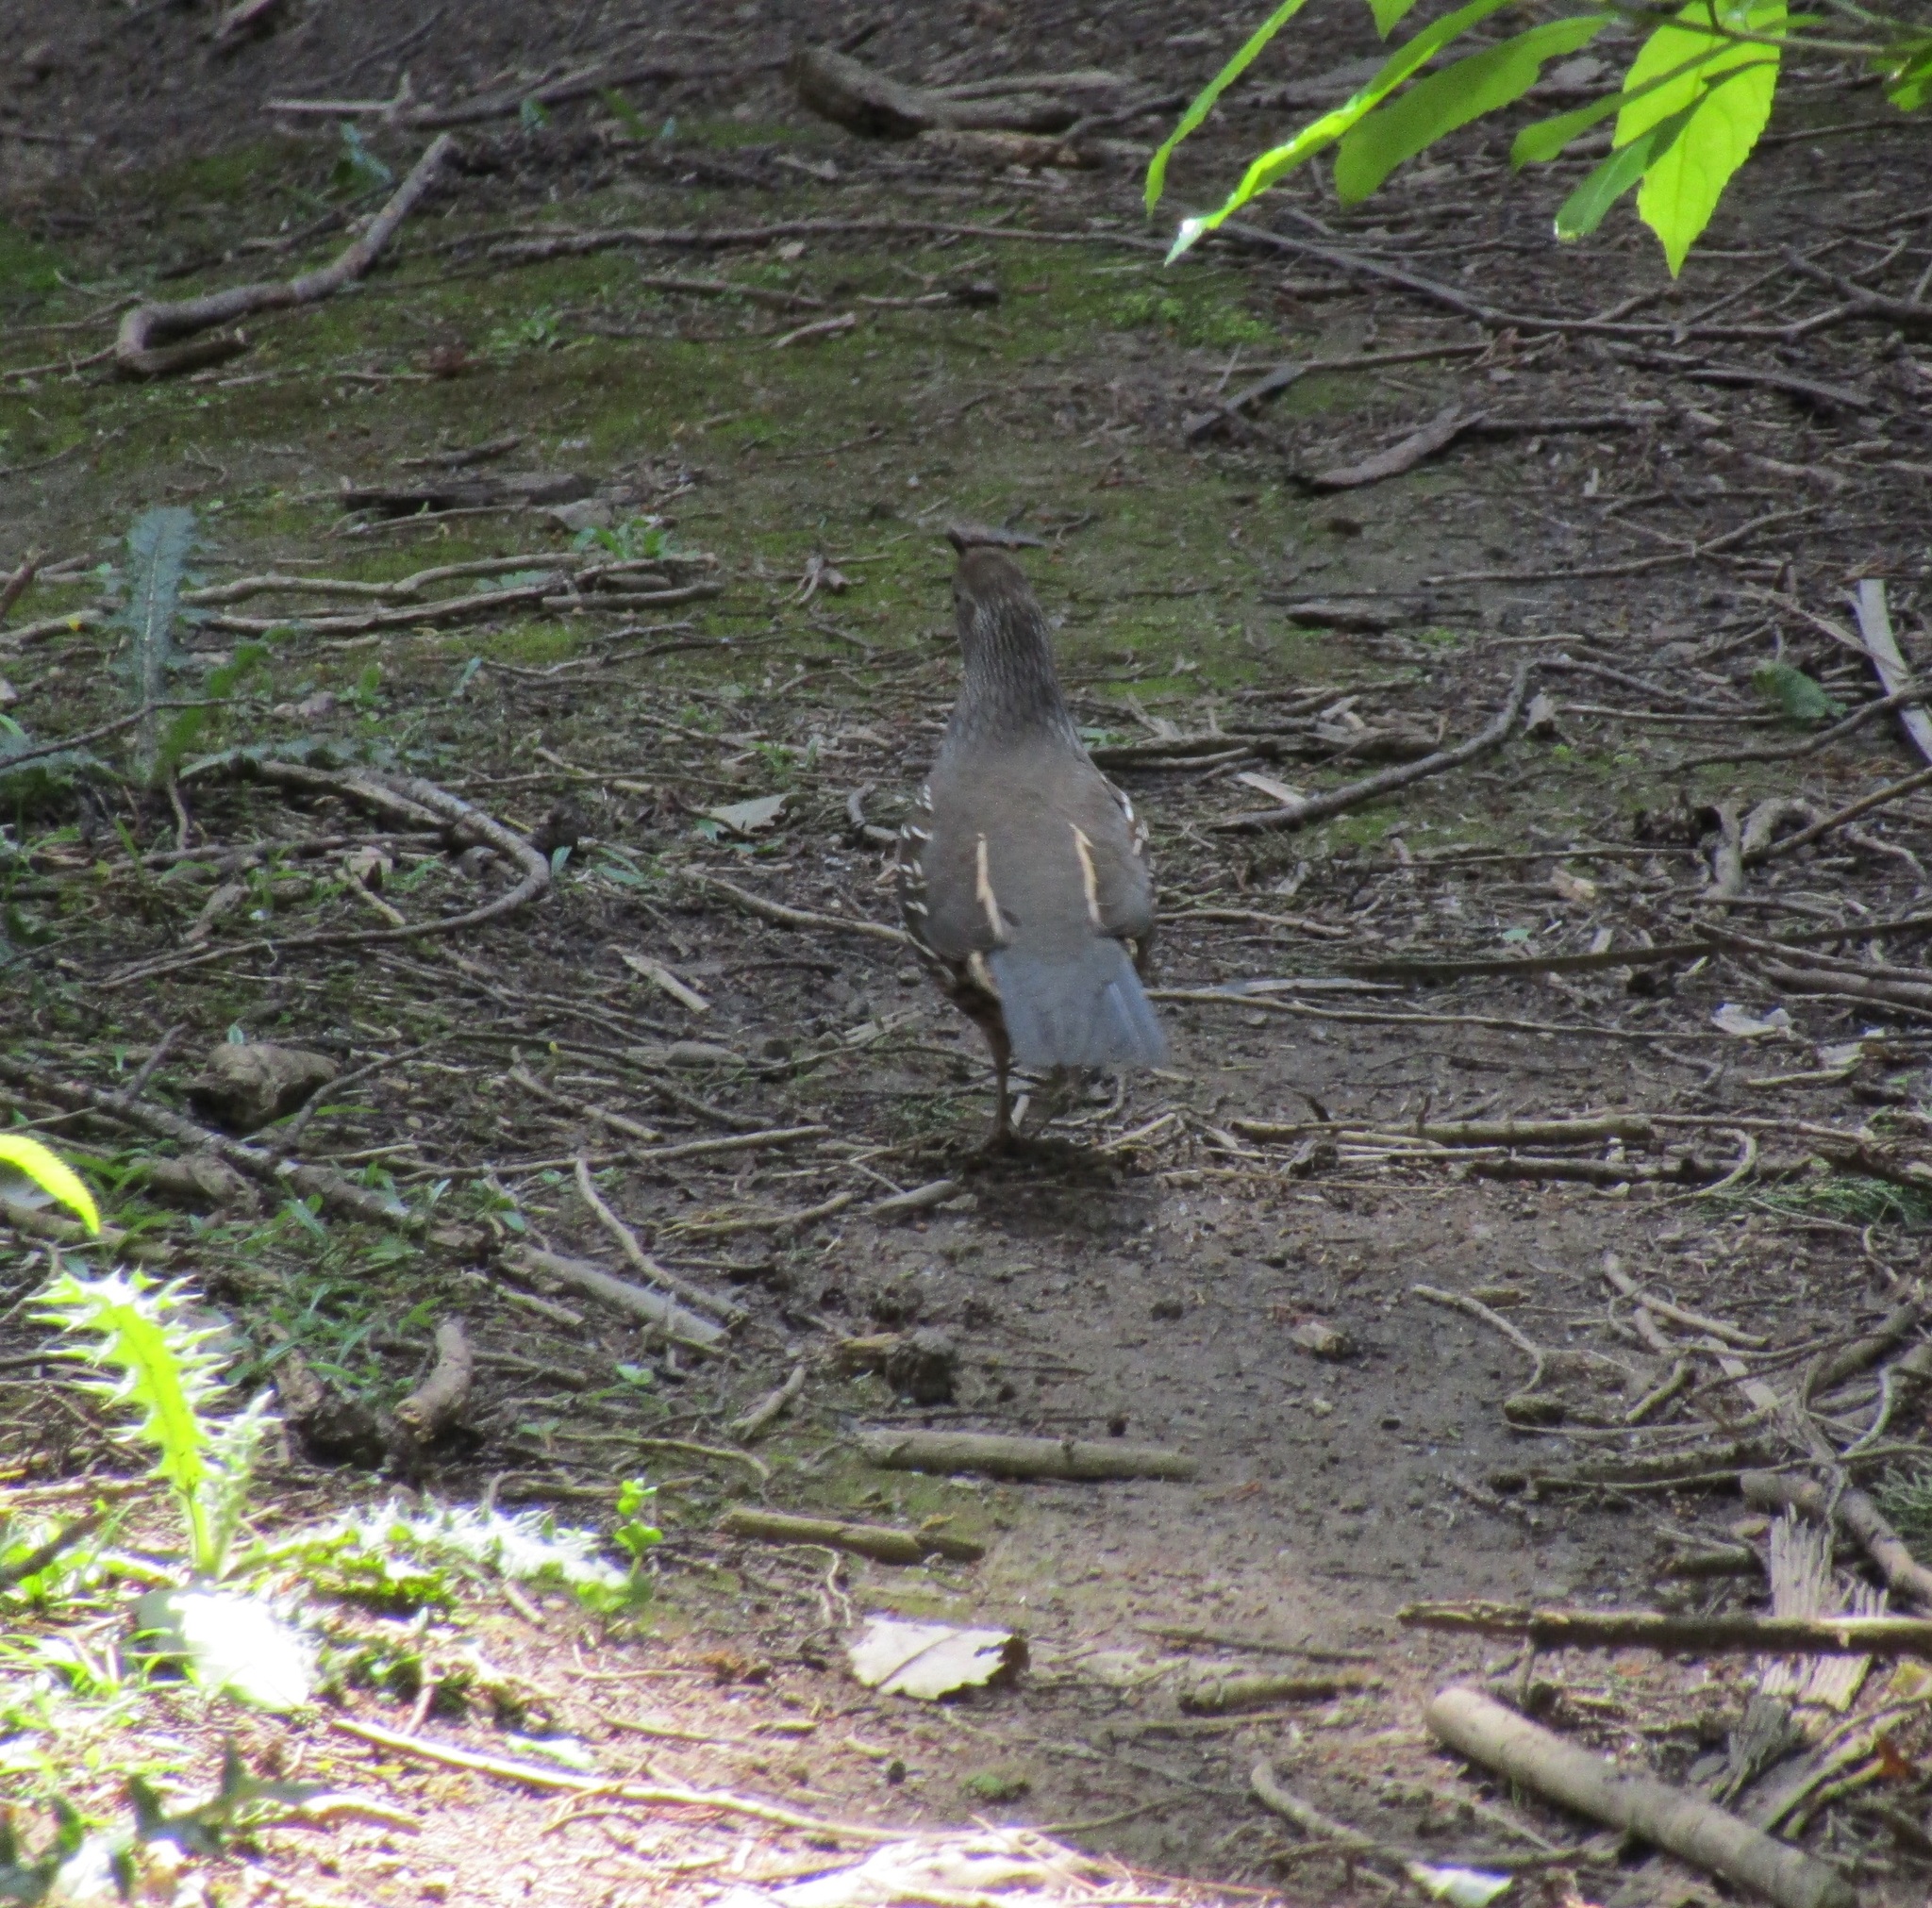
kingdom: Animalia
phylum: Chordata
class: Aves
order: Galliformes
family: Odontophoridae
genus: Callipepla
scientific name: Callipepla californica
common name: California quail
